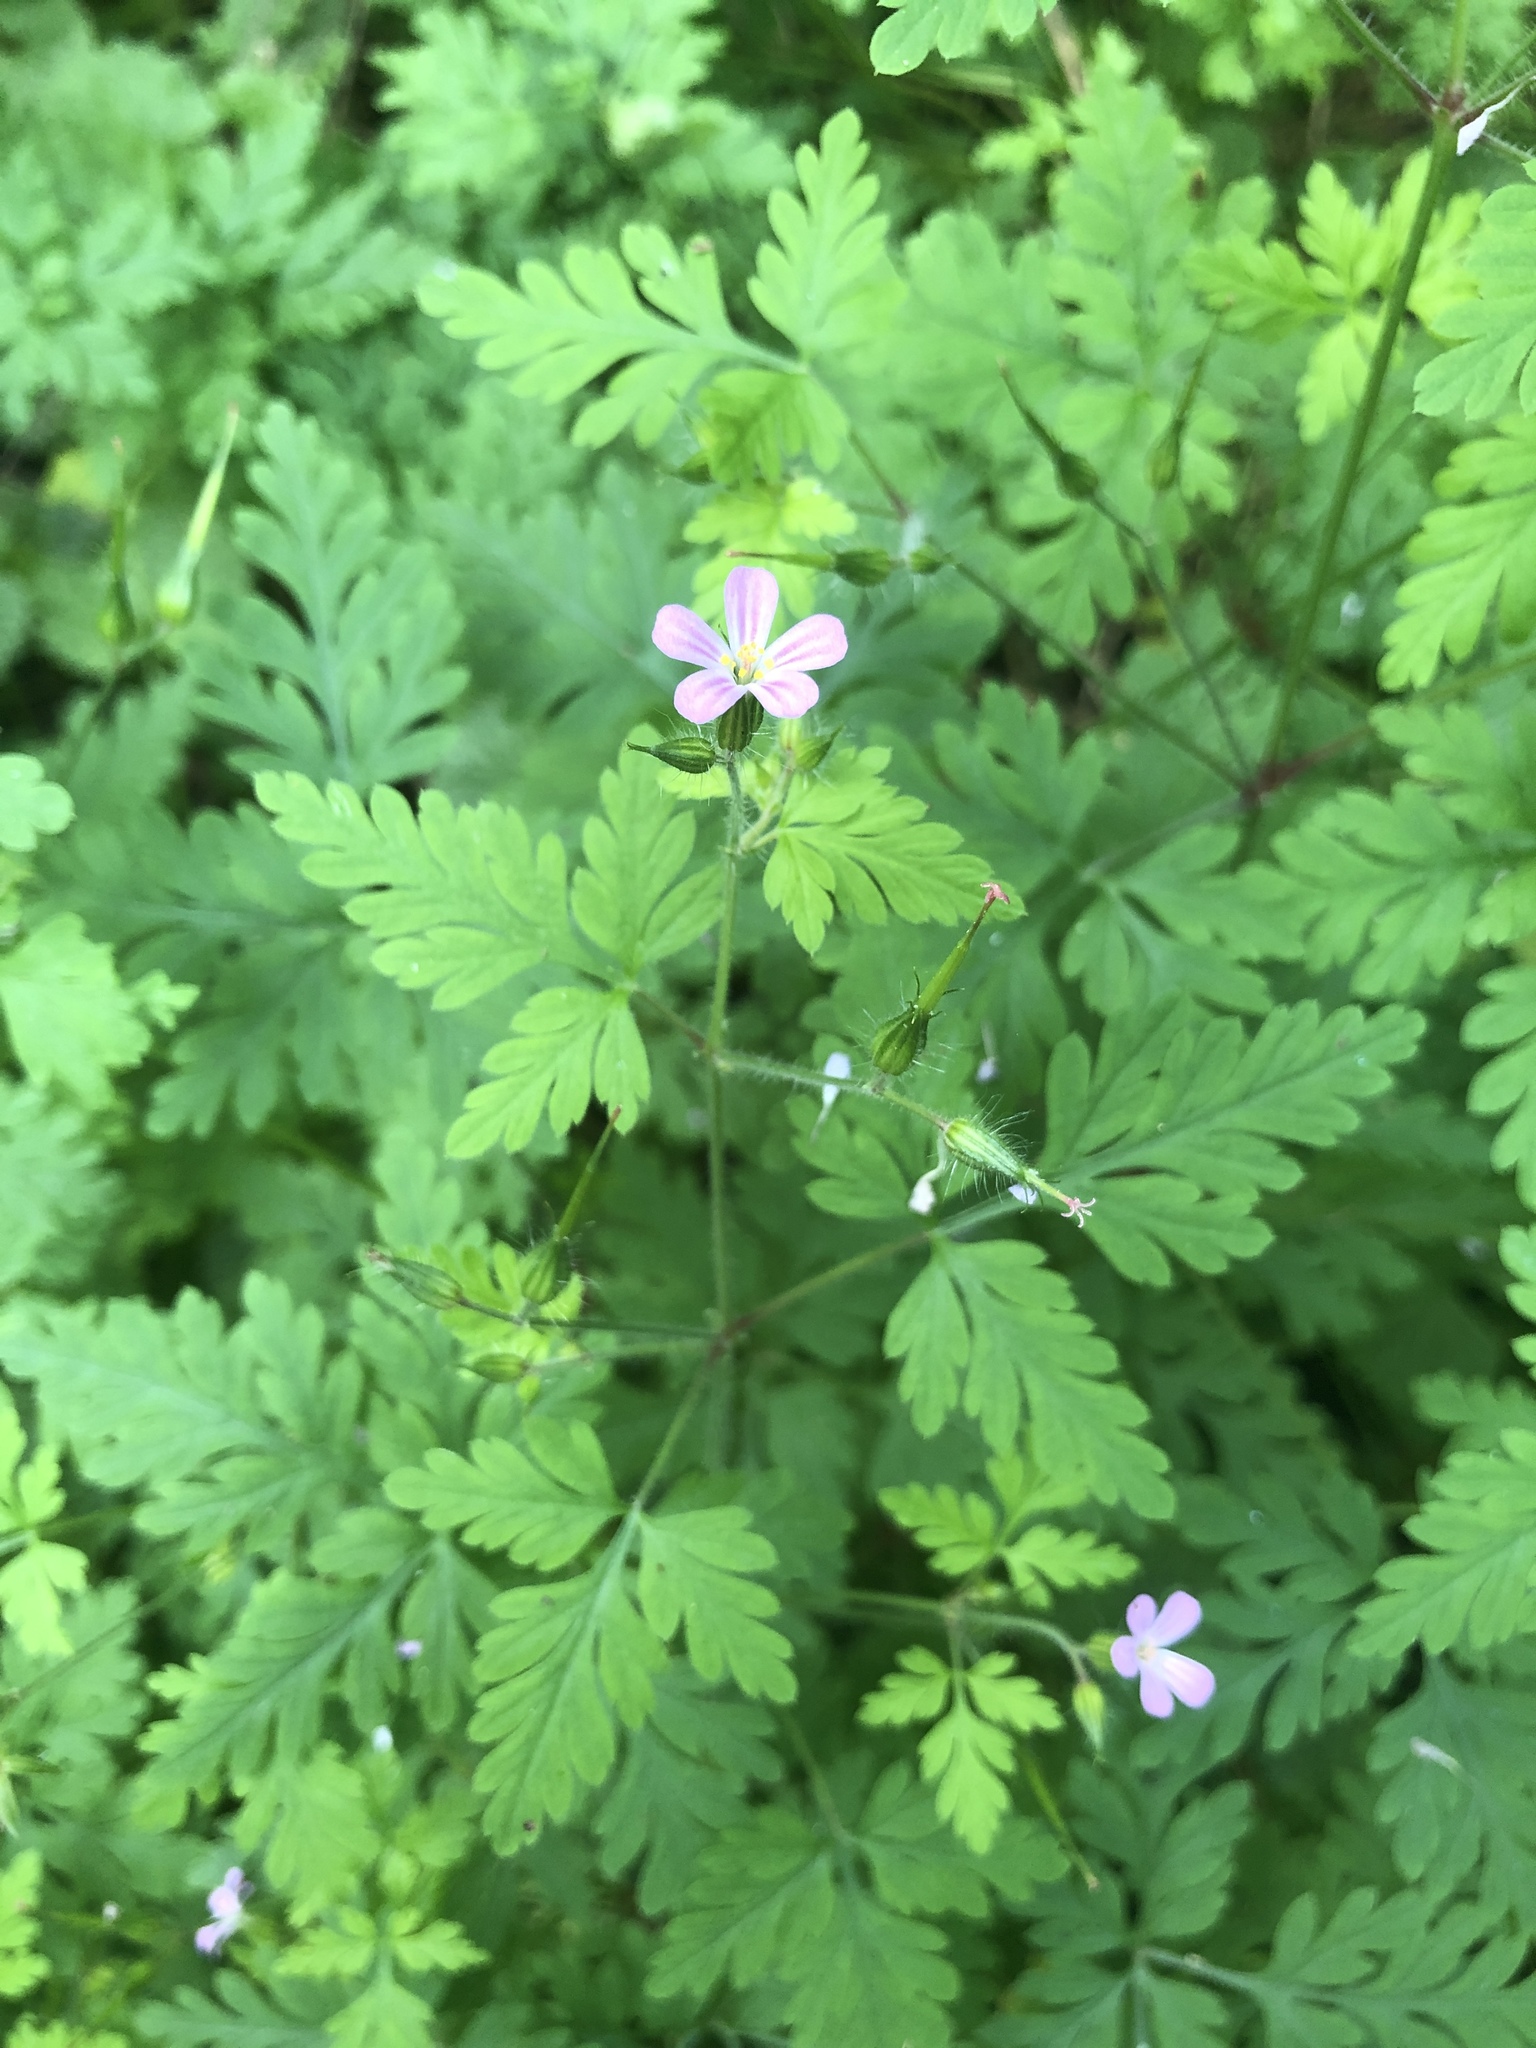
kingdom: Plantae
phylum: Tracheophyta
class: Magnoliopsida
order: Geraniales
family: Geraniaceae
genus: Geranium
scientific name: Geranium robertianum
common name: Herb-robert
